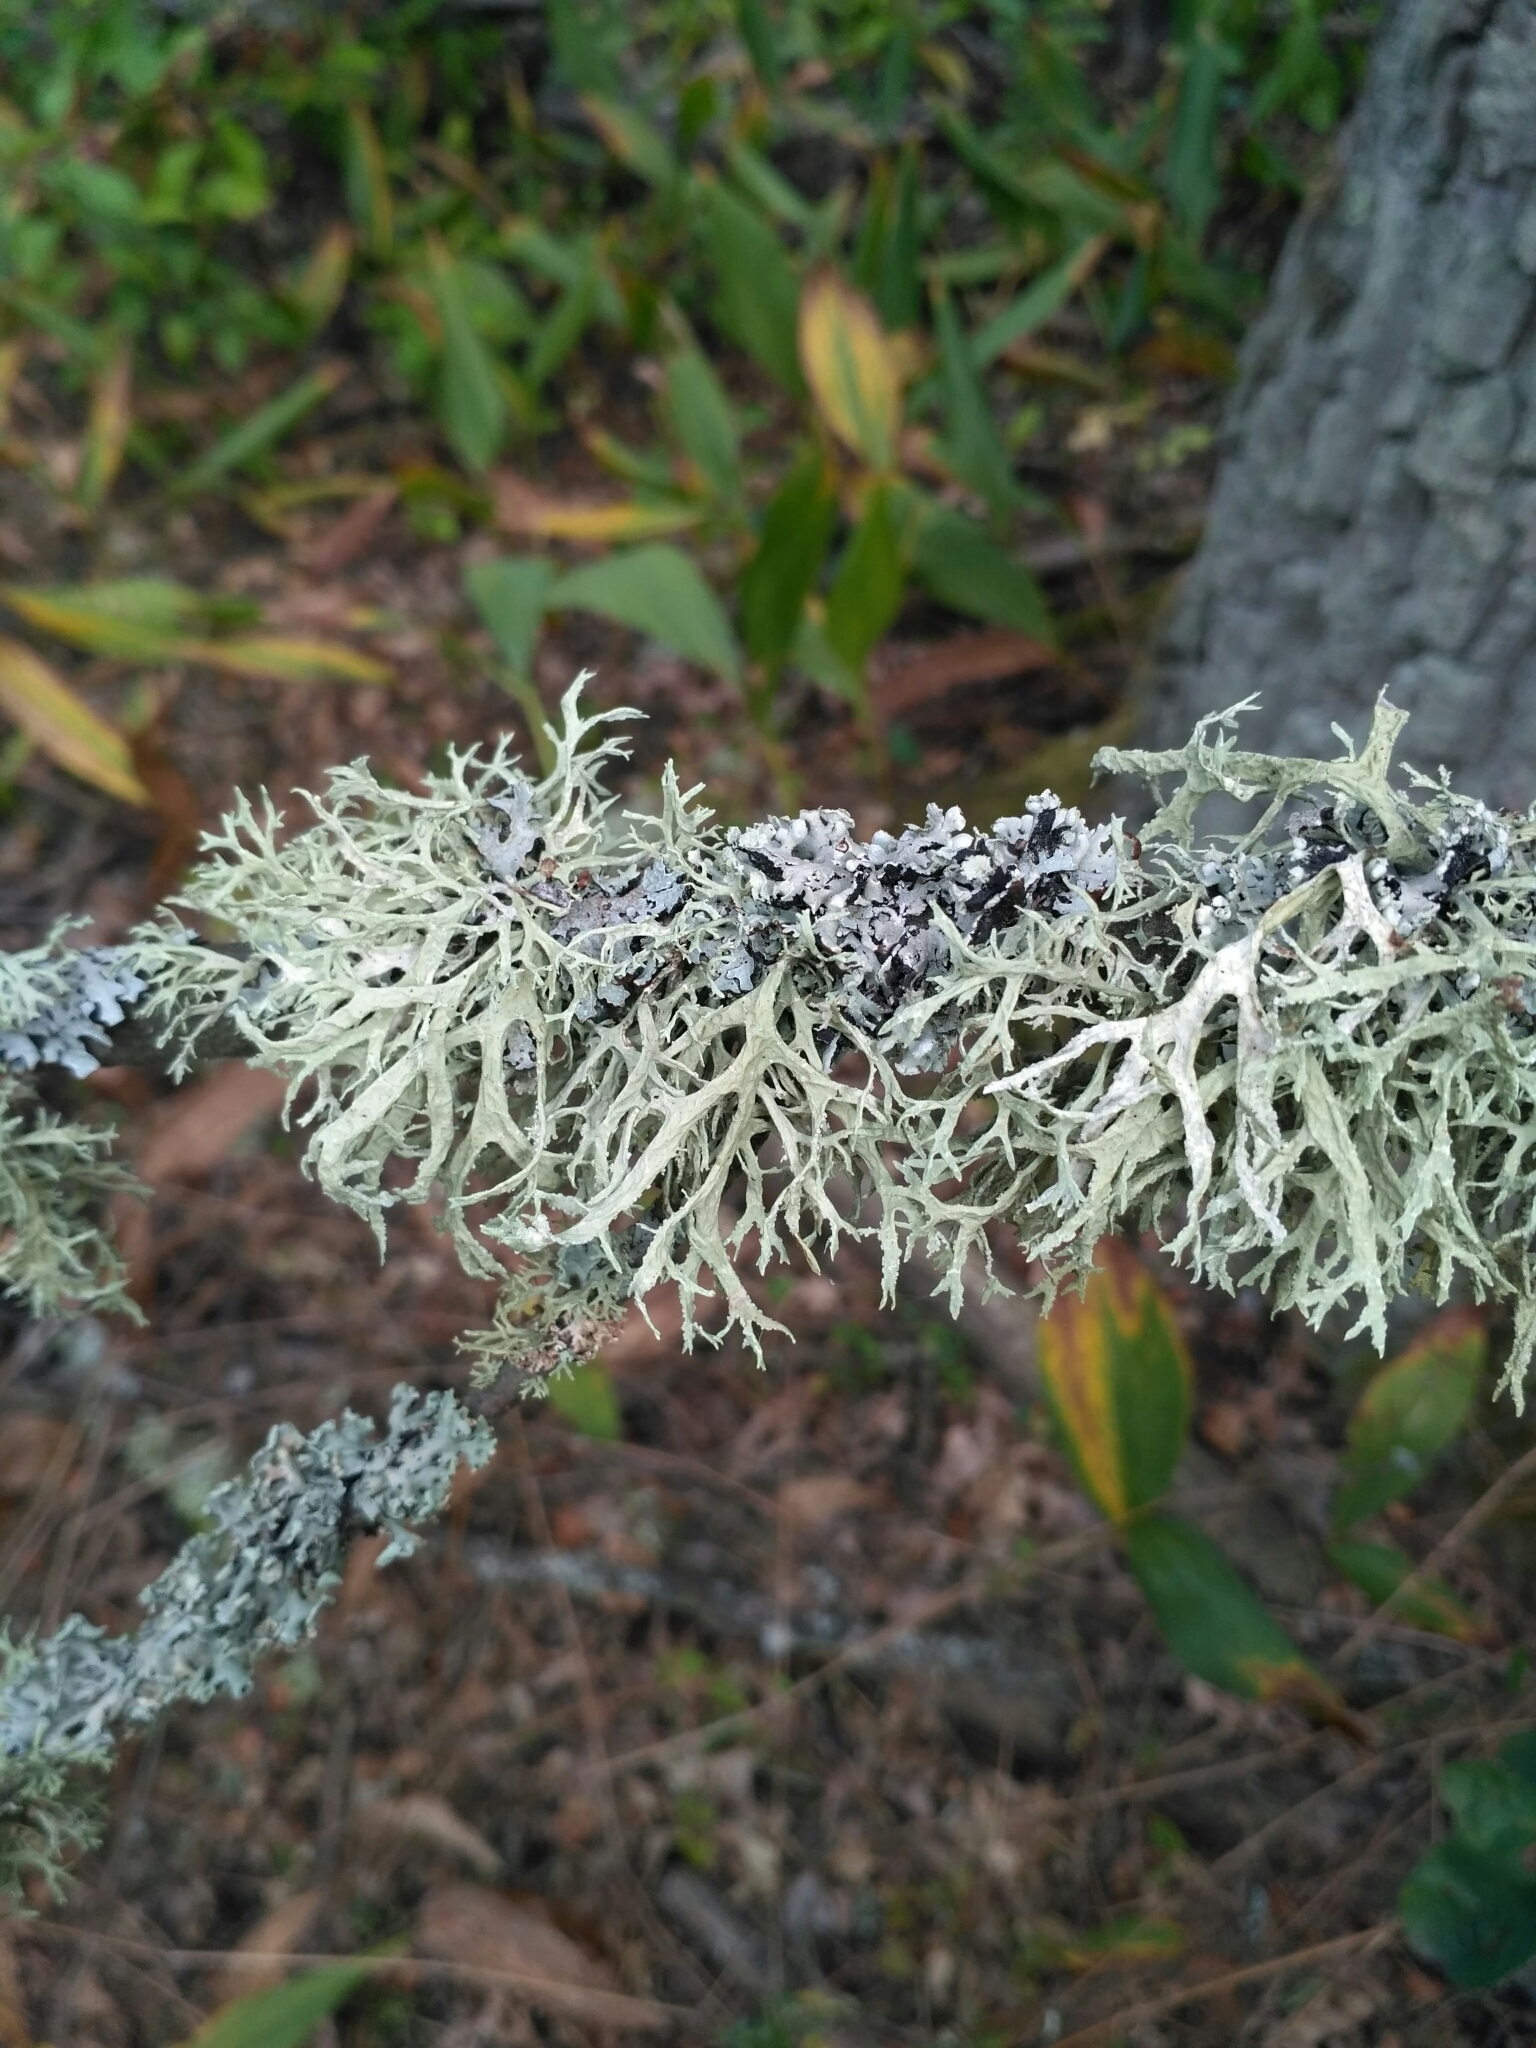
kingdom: Fungi
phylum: Ascomycota
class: Lecanoromycetes
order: Lecanorales
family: Parmeliaceae
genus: Evernia
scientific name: Evernia prunastri
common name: Oak moss
